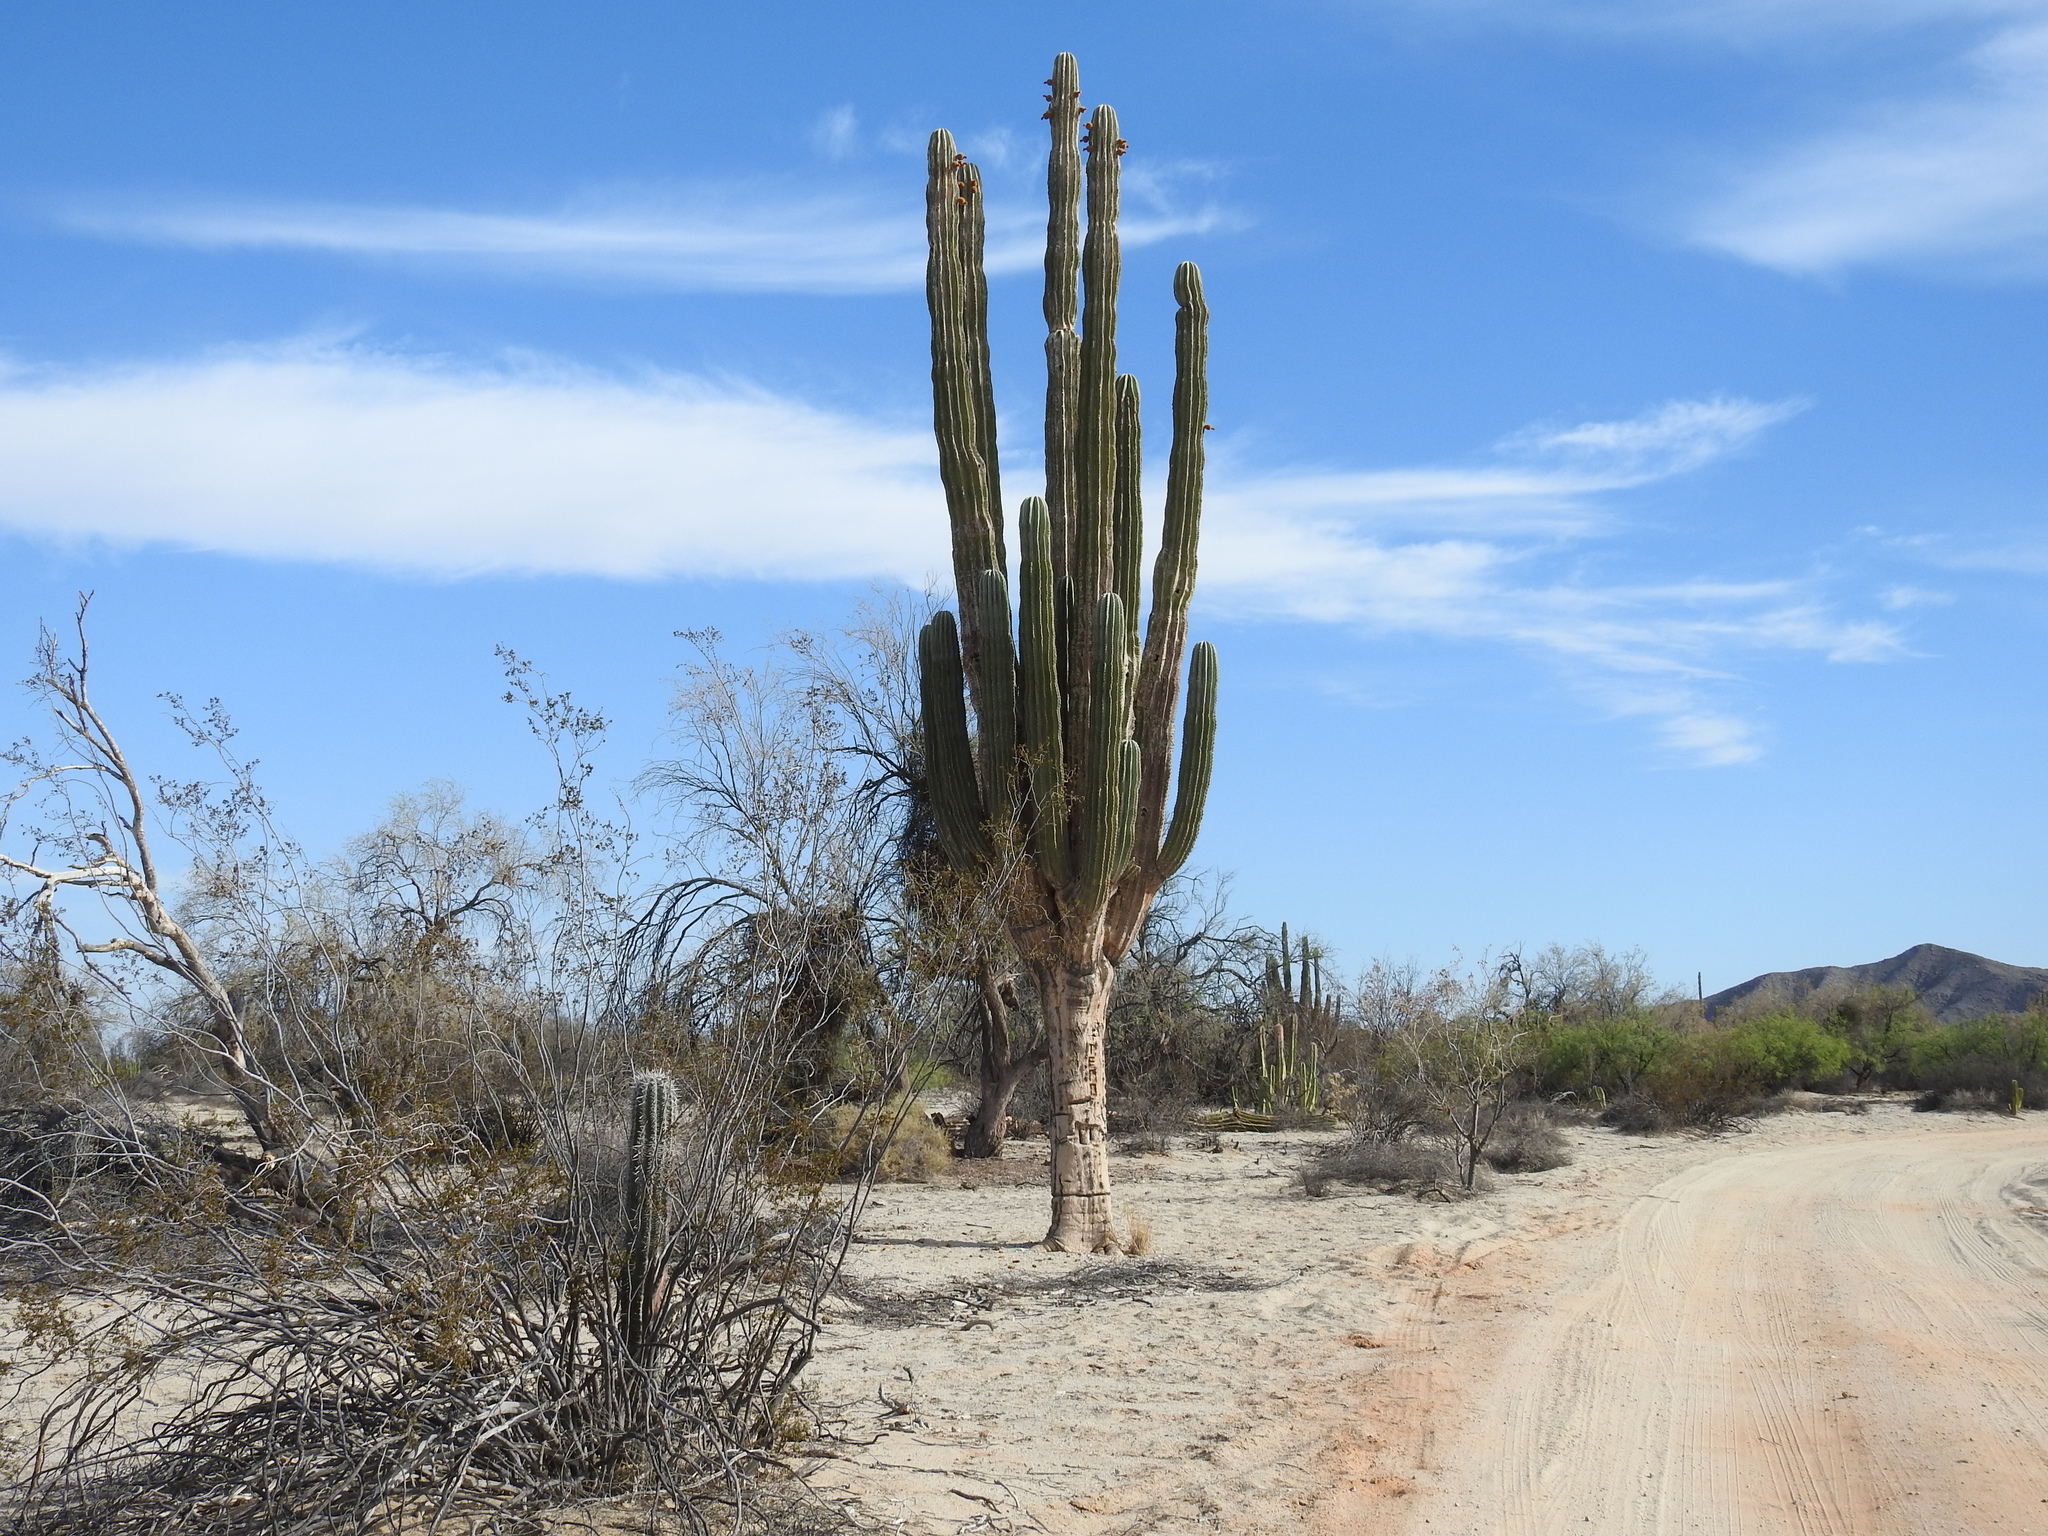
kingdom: Plantae
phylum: Tracheophyta
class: Magnoliopsida
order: Caryophyllales
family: Cactaceae
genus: Pachycereus
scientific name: Pachycereus pringlei
